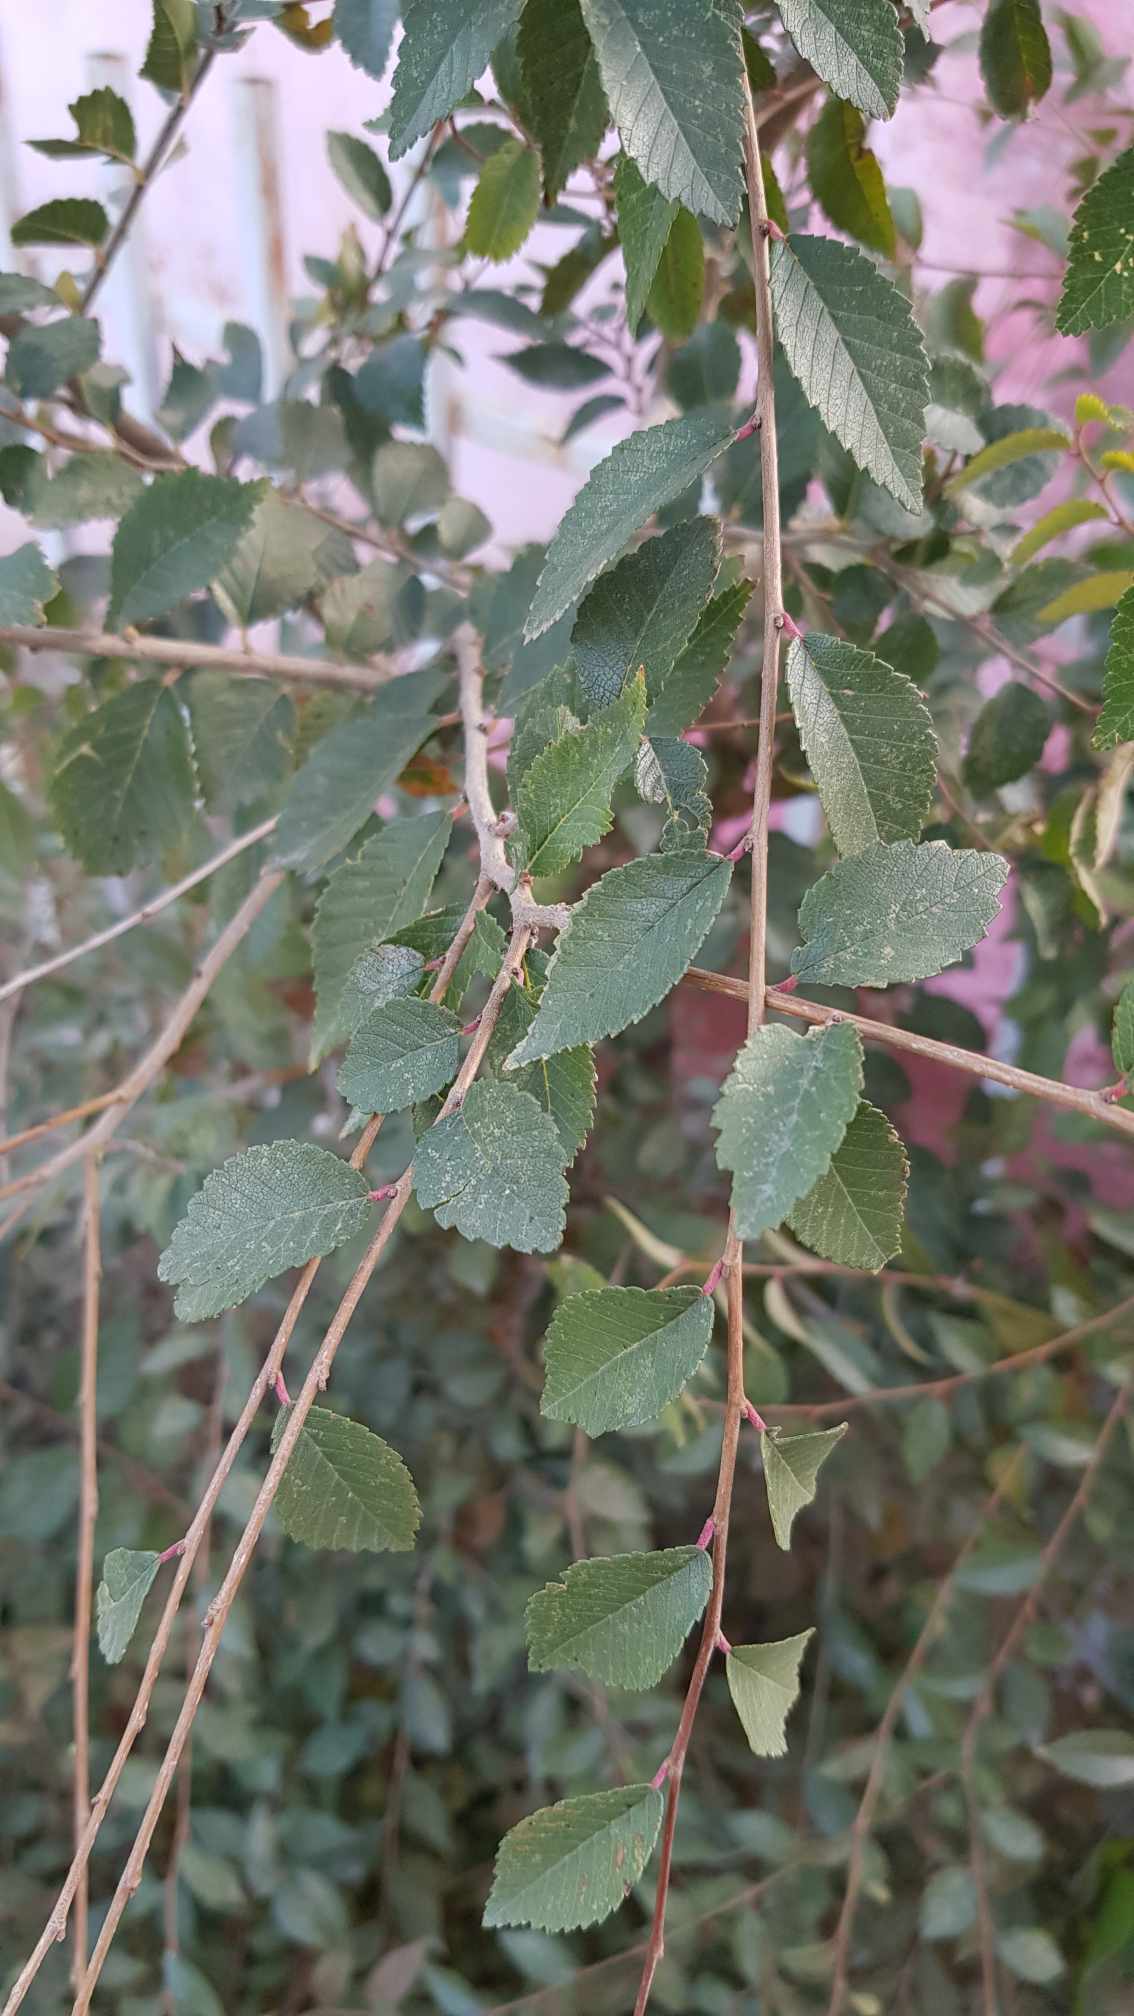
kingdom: Plantae
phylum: Tracheophyta
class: Magnoliopsida
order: Rosales
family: Ulmaceae
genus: Ulmus
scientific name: Ulmus pumila
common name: Siberian elm
